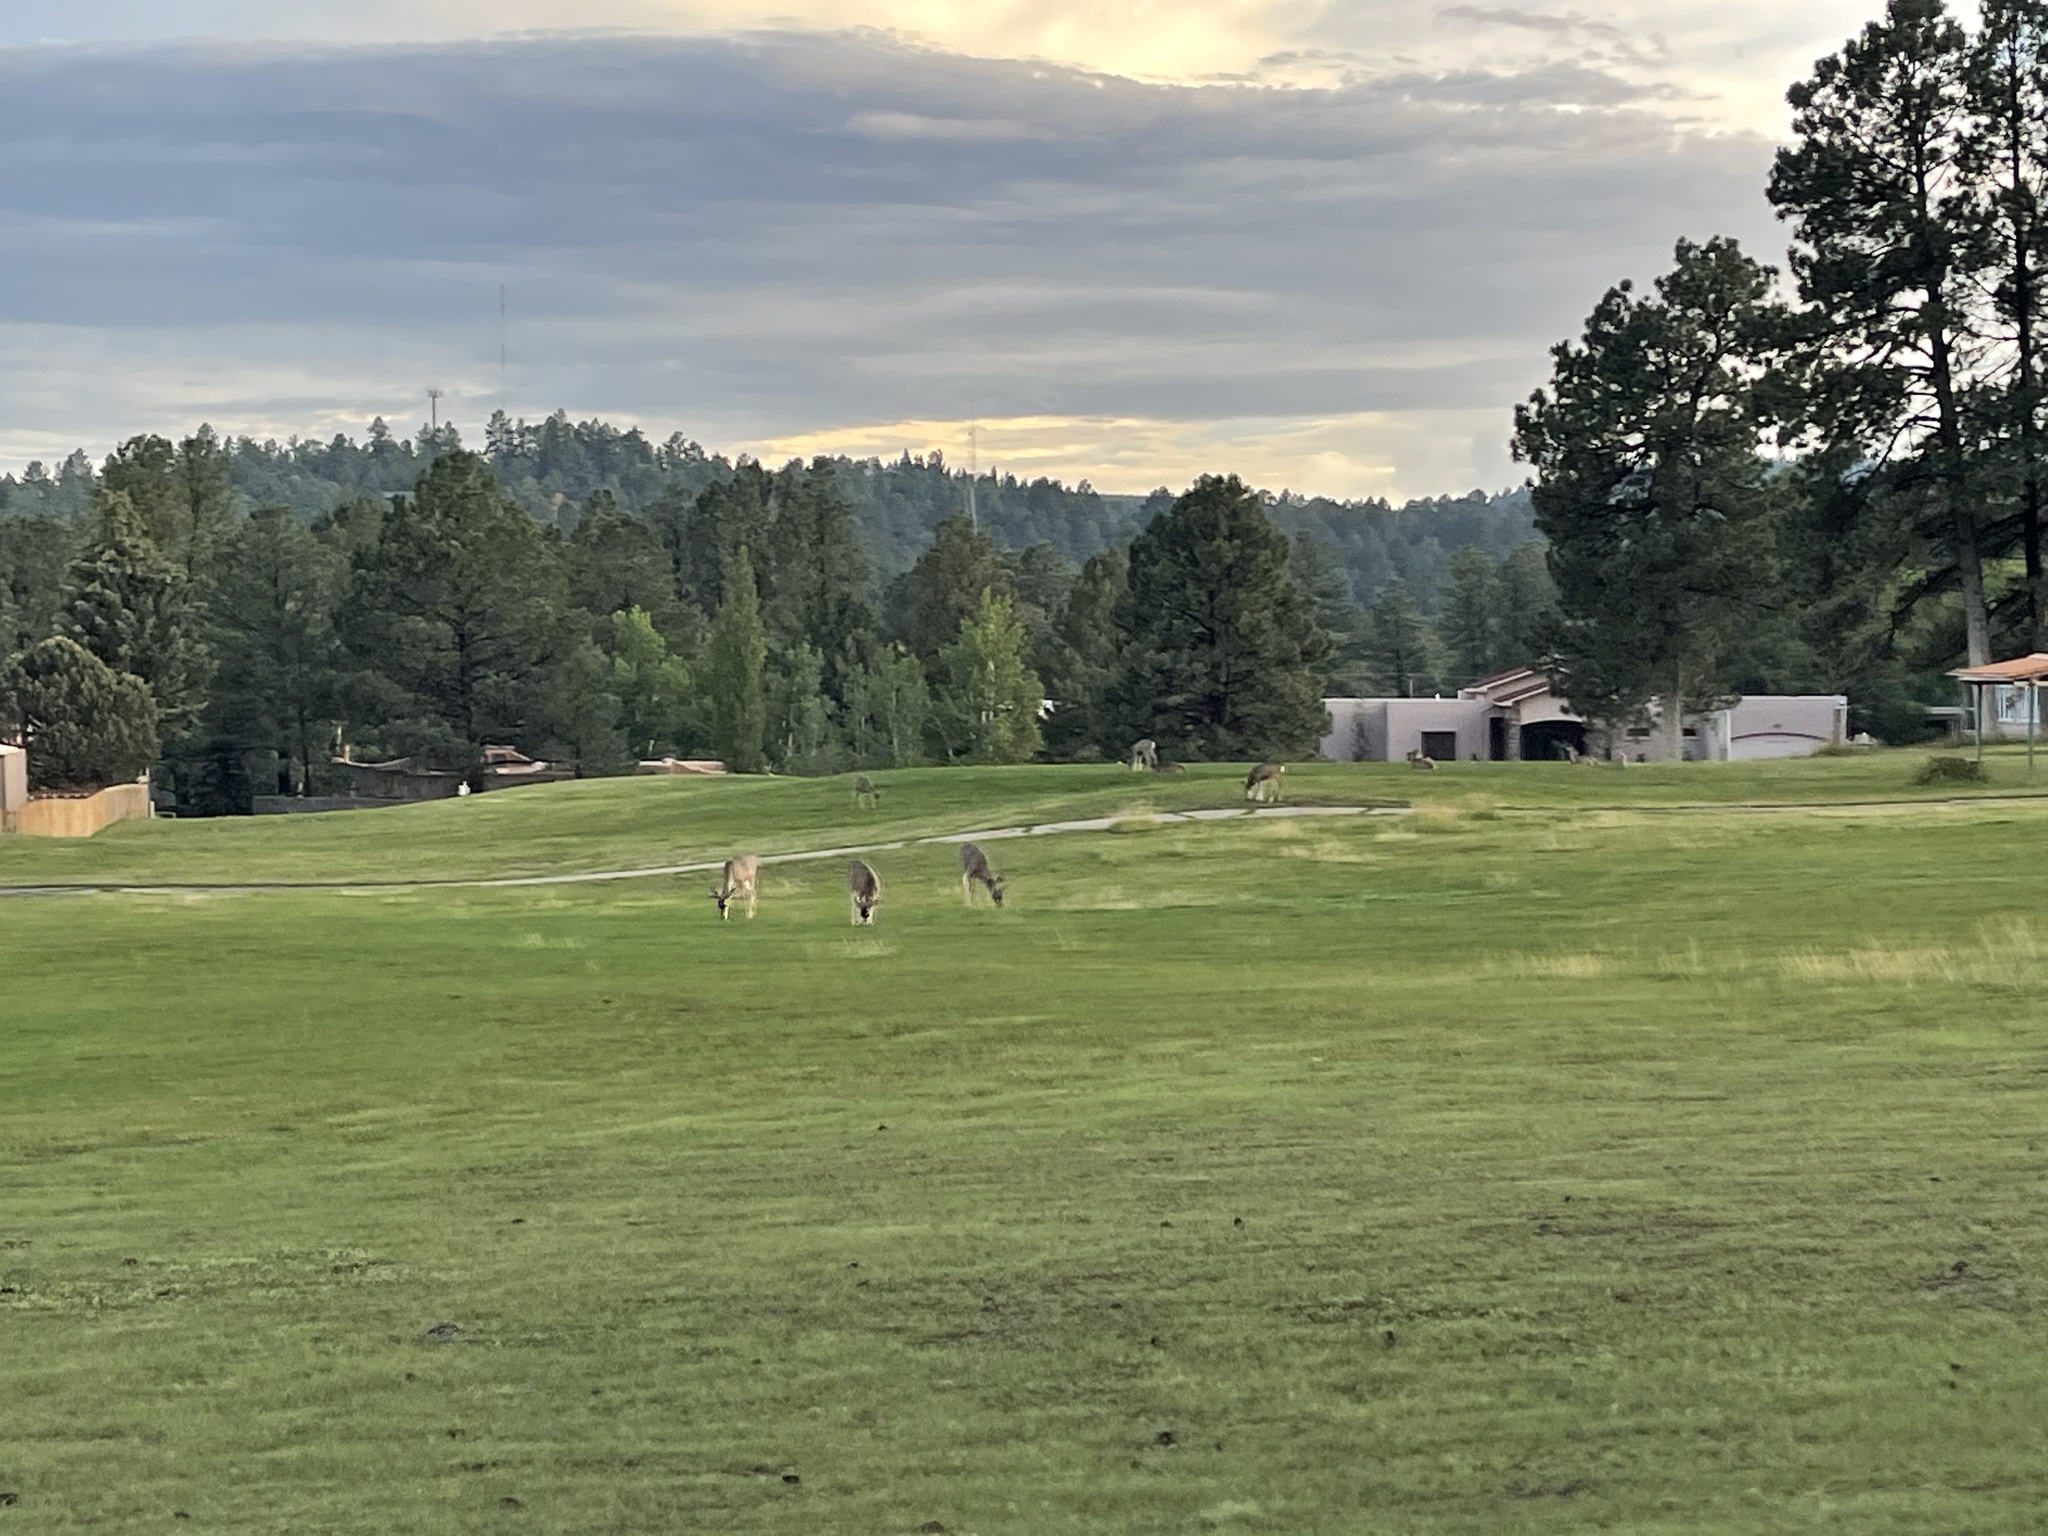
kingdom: Animalia
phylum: Chordata
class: Mammalia
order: Artiodactyla
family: Cervidae
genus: Odocoileus
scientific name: Odocoileus hemionus
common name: Mule deer
